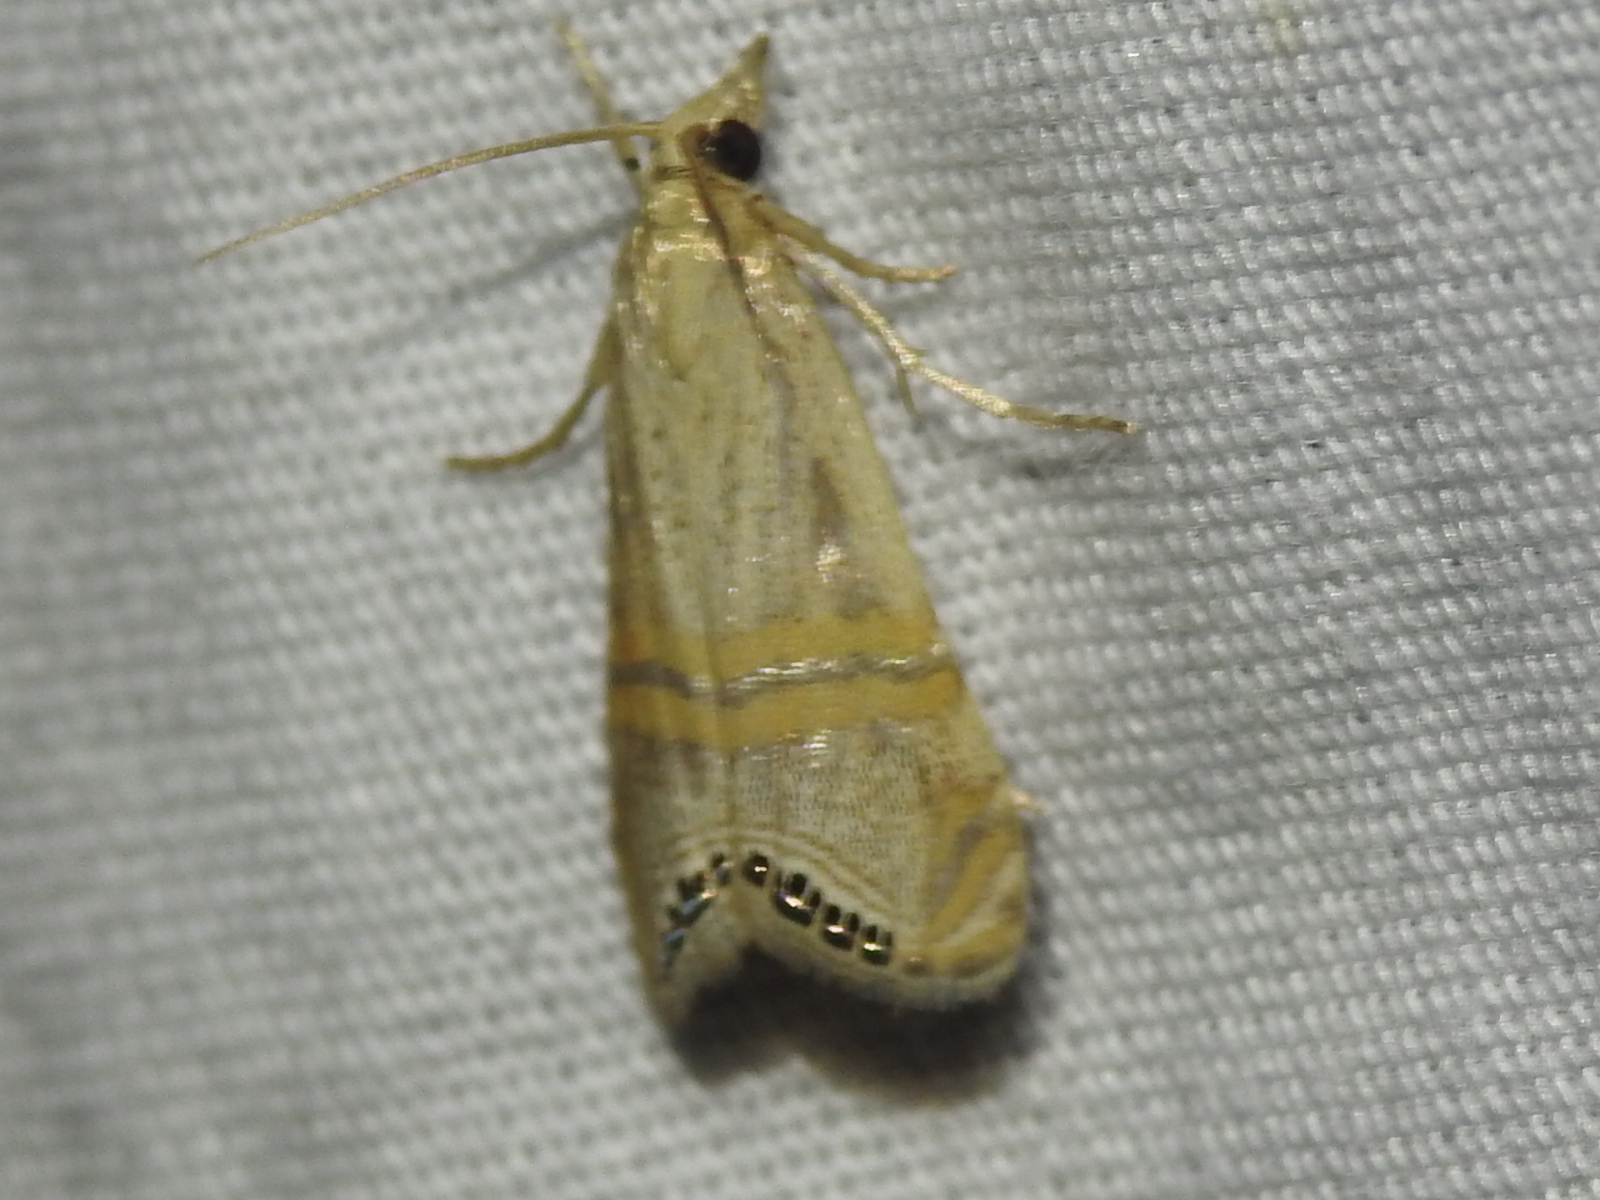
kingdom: Animalia
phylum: Arthropoda
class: Insecta
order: Lepidoptera
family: Crambidae
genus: Euchromius
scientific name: Euchromius ocellea
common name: Necklace veneer moth
